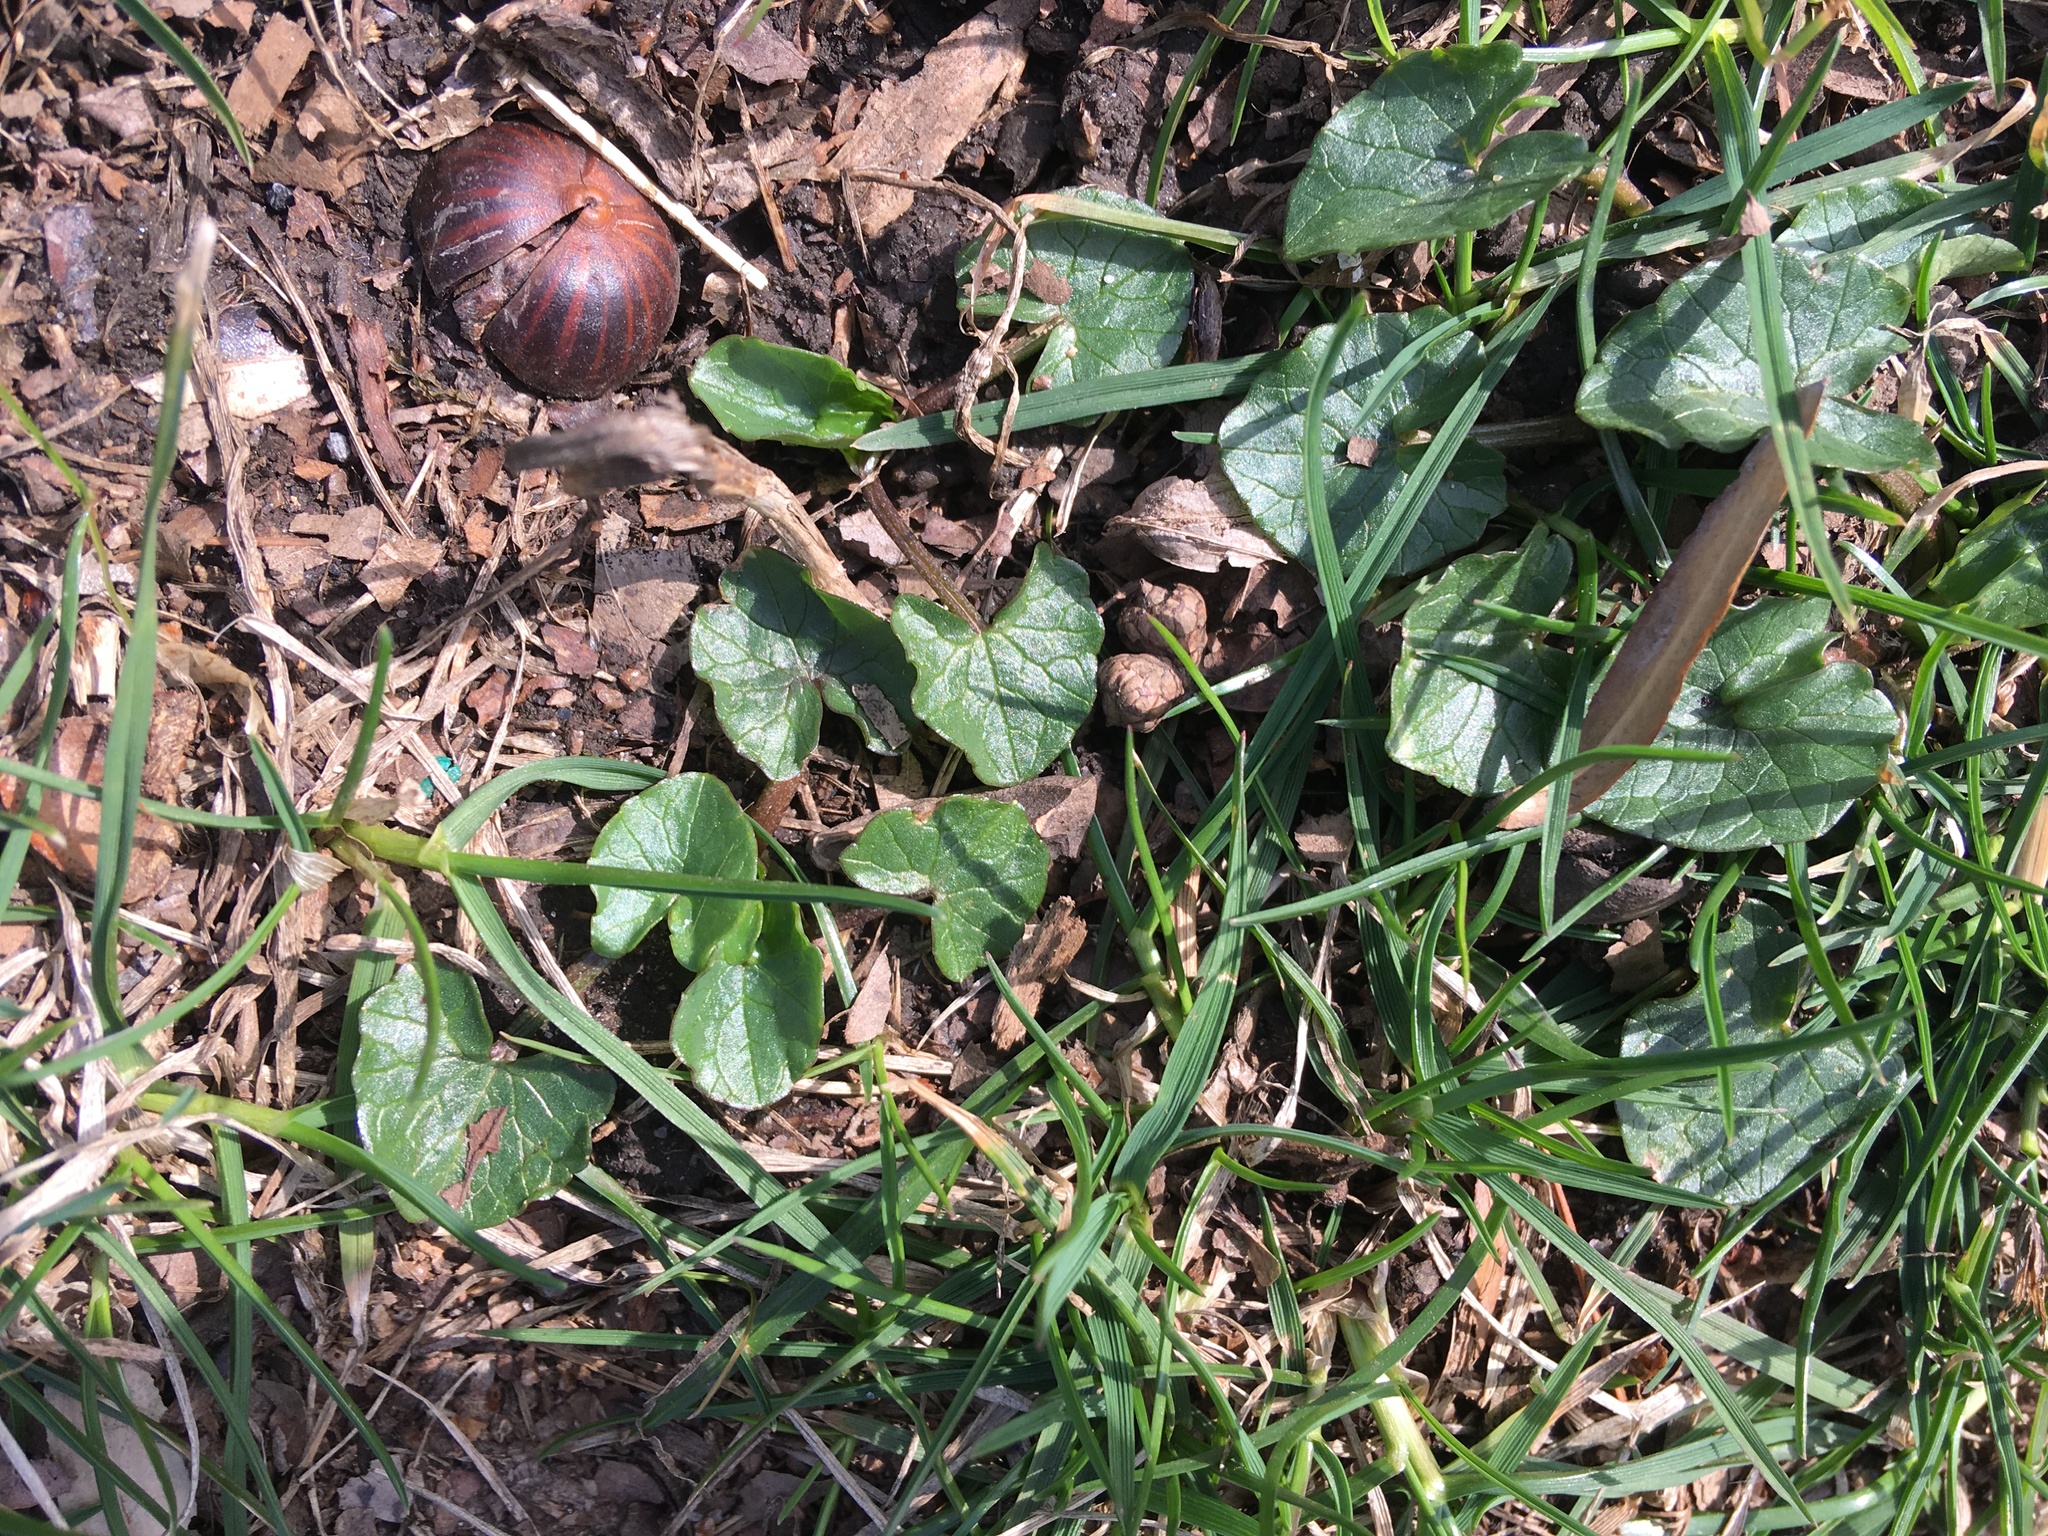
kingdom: Plantae
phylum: Tracheophyta
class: Magnoliopsida
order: Ranunculales
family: Ranunculaceae
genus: Ficaria
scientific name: Ficaria verna
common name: Lesser celandine
